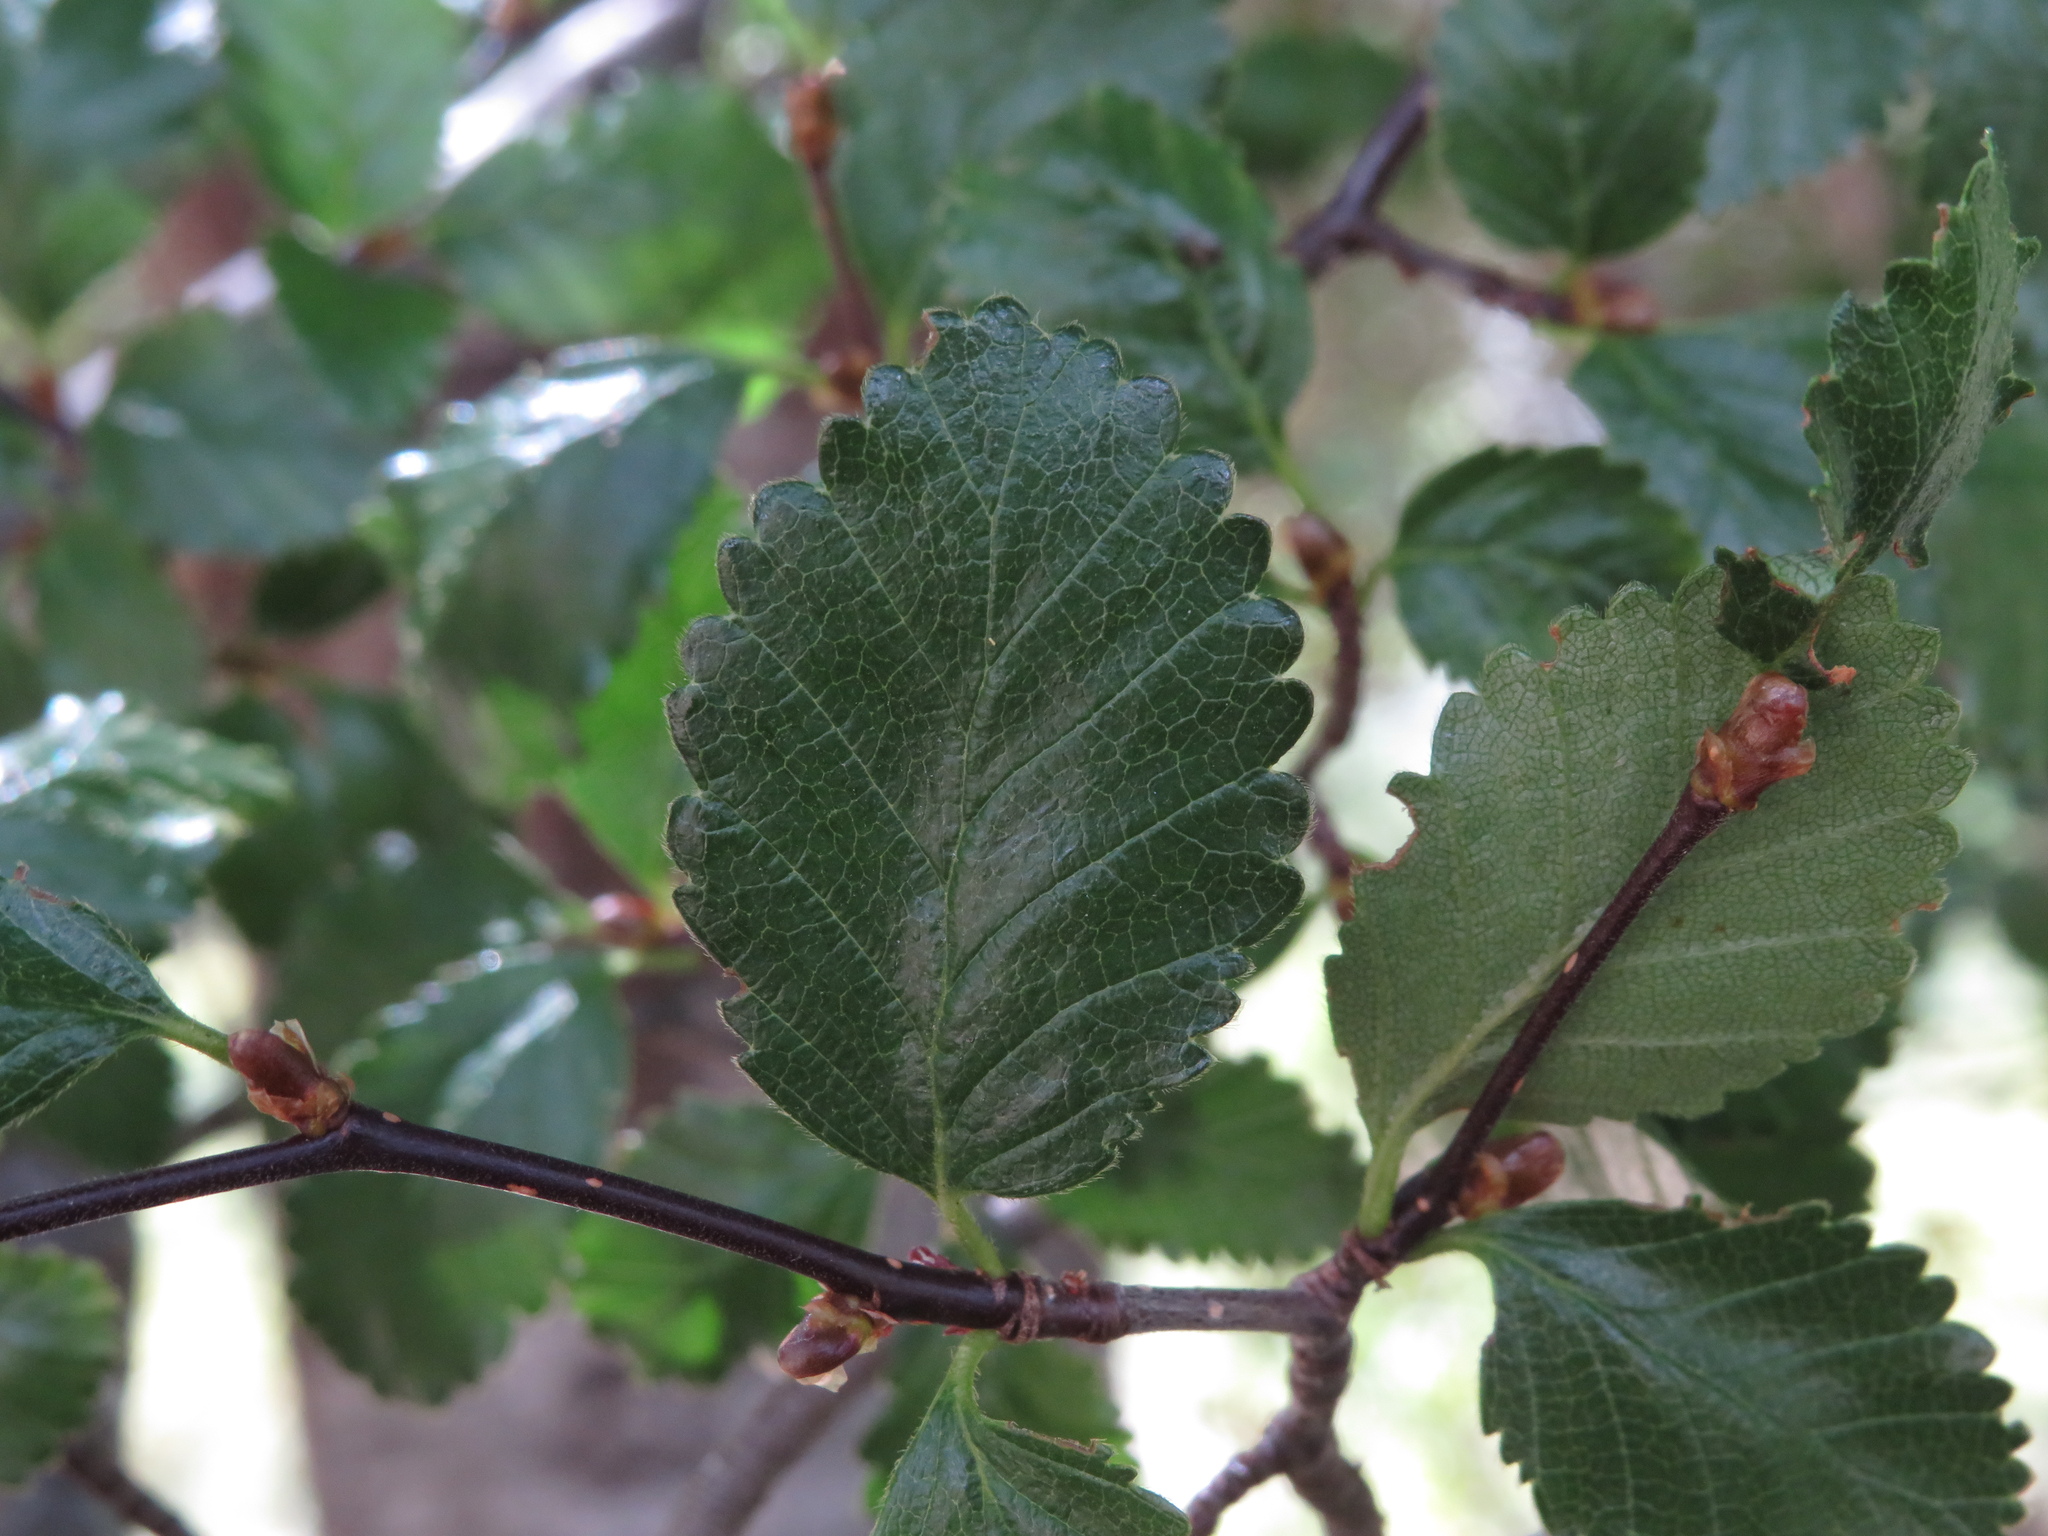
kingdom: Plantae
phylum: Tracheophyta
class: Magnoliopsida
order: Fagales
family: Nothofagaceae
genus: Nothofagus
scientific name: Nothofagus pumilio
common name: Lenga beech
